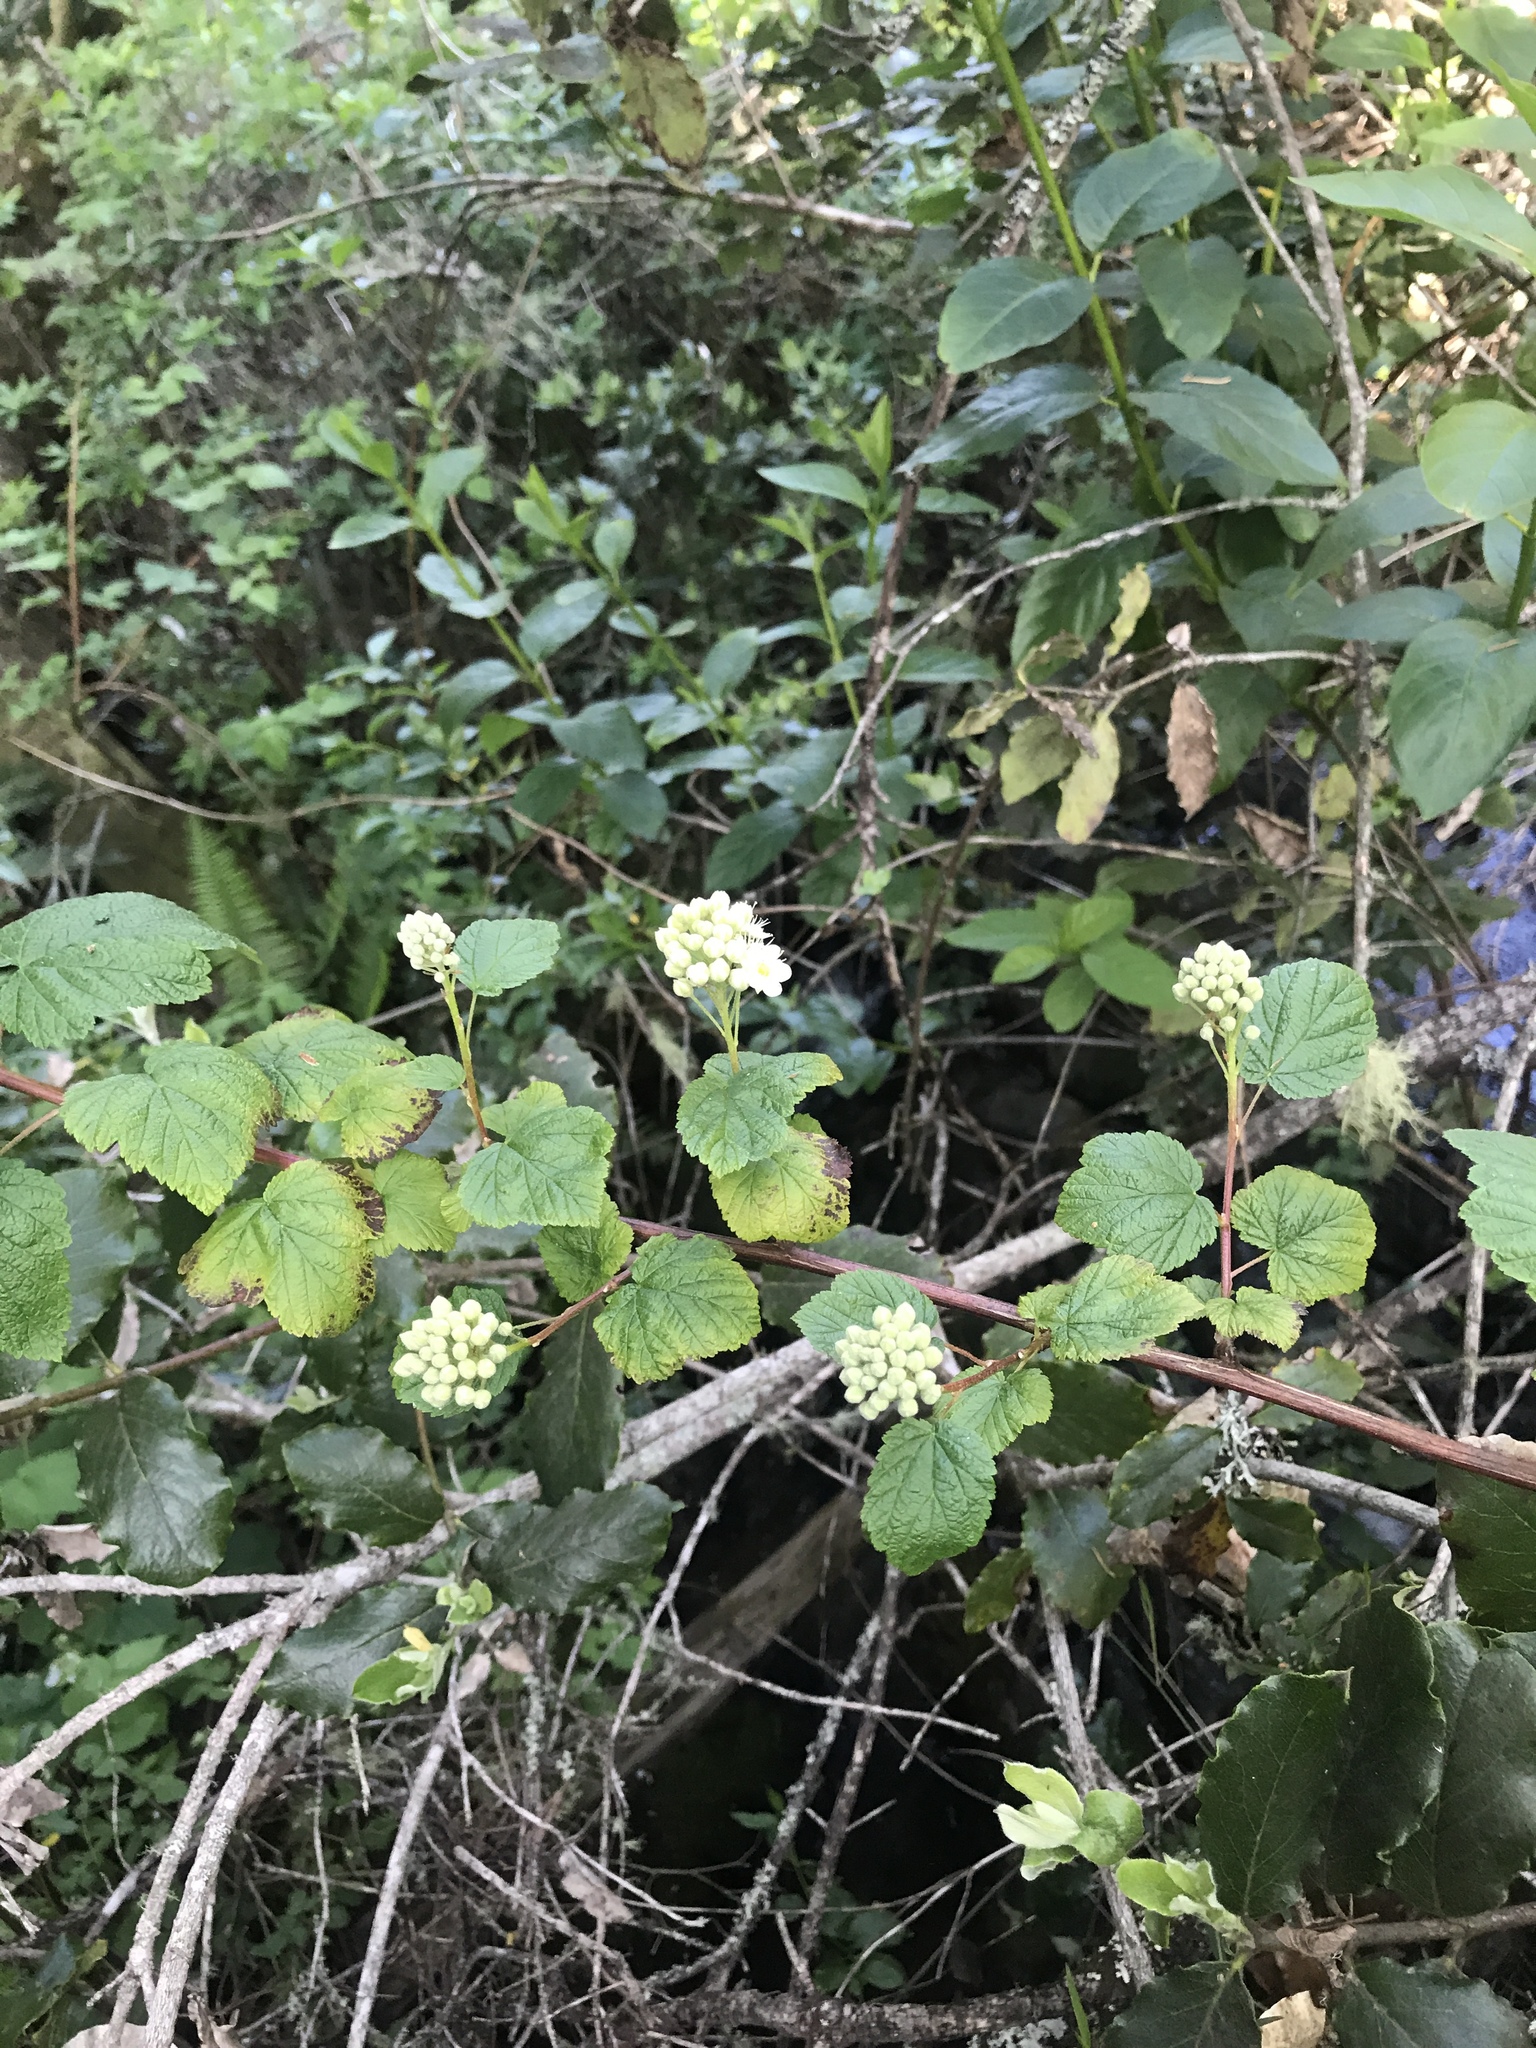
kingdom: Plantae
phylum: Tracheophyta
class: Magnoliopsida
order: Rosales
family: Rosaceae
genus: Physocarpus
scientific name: Physocarpus capitatus
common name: Pacific ninebark
